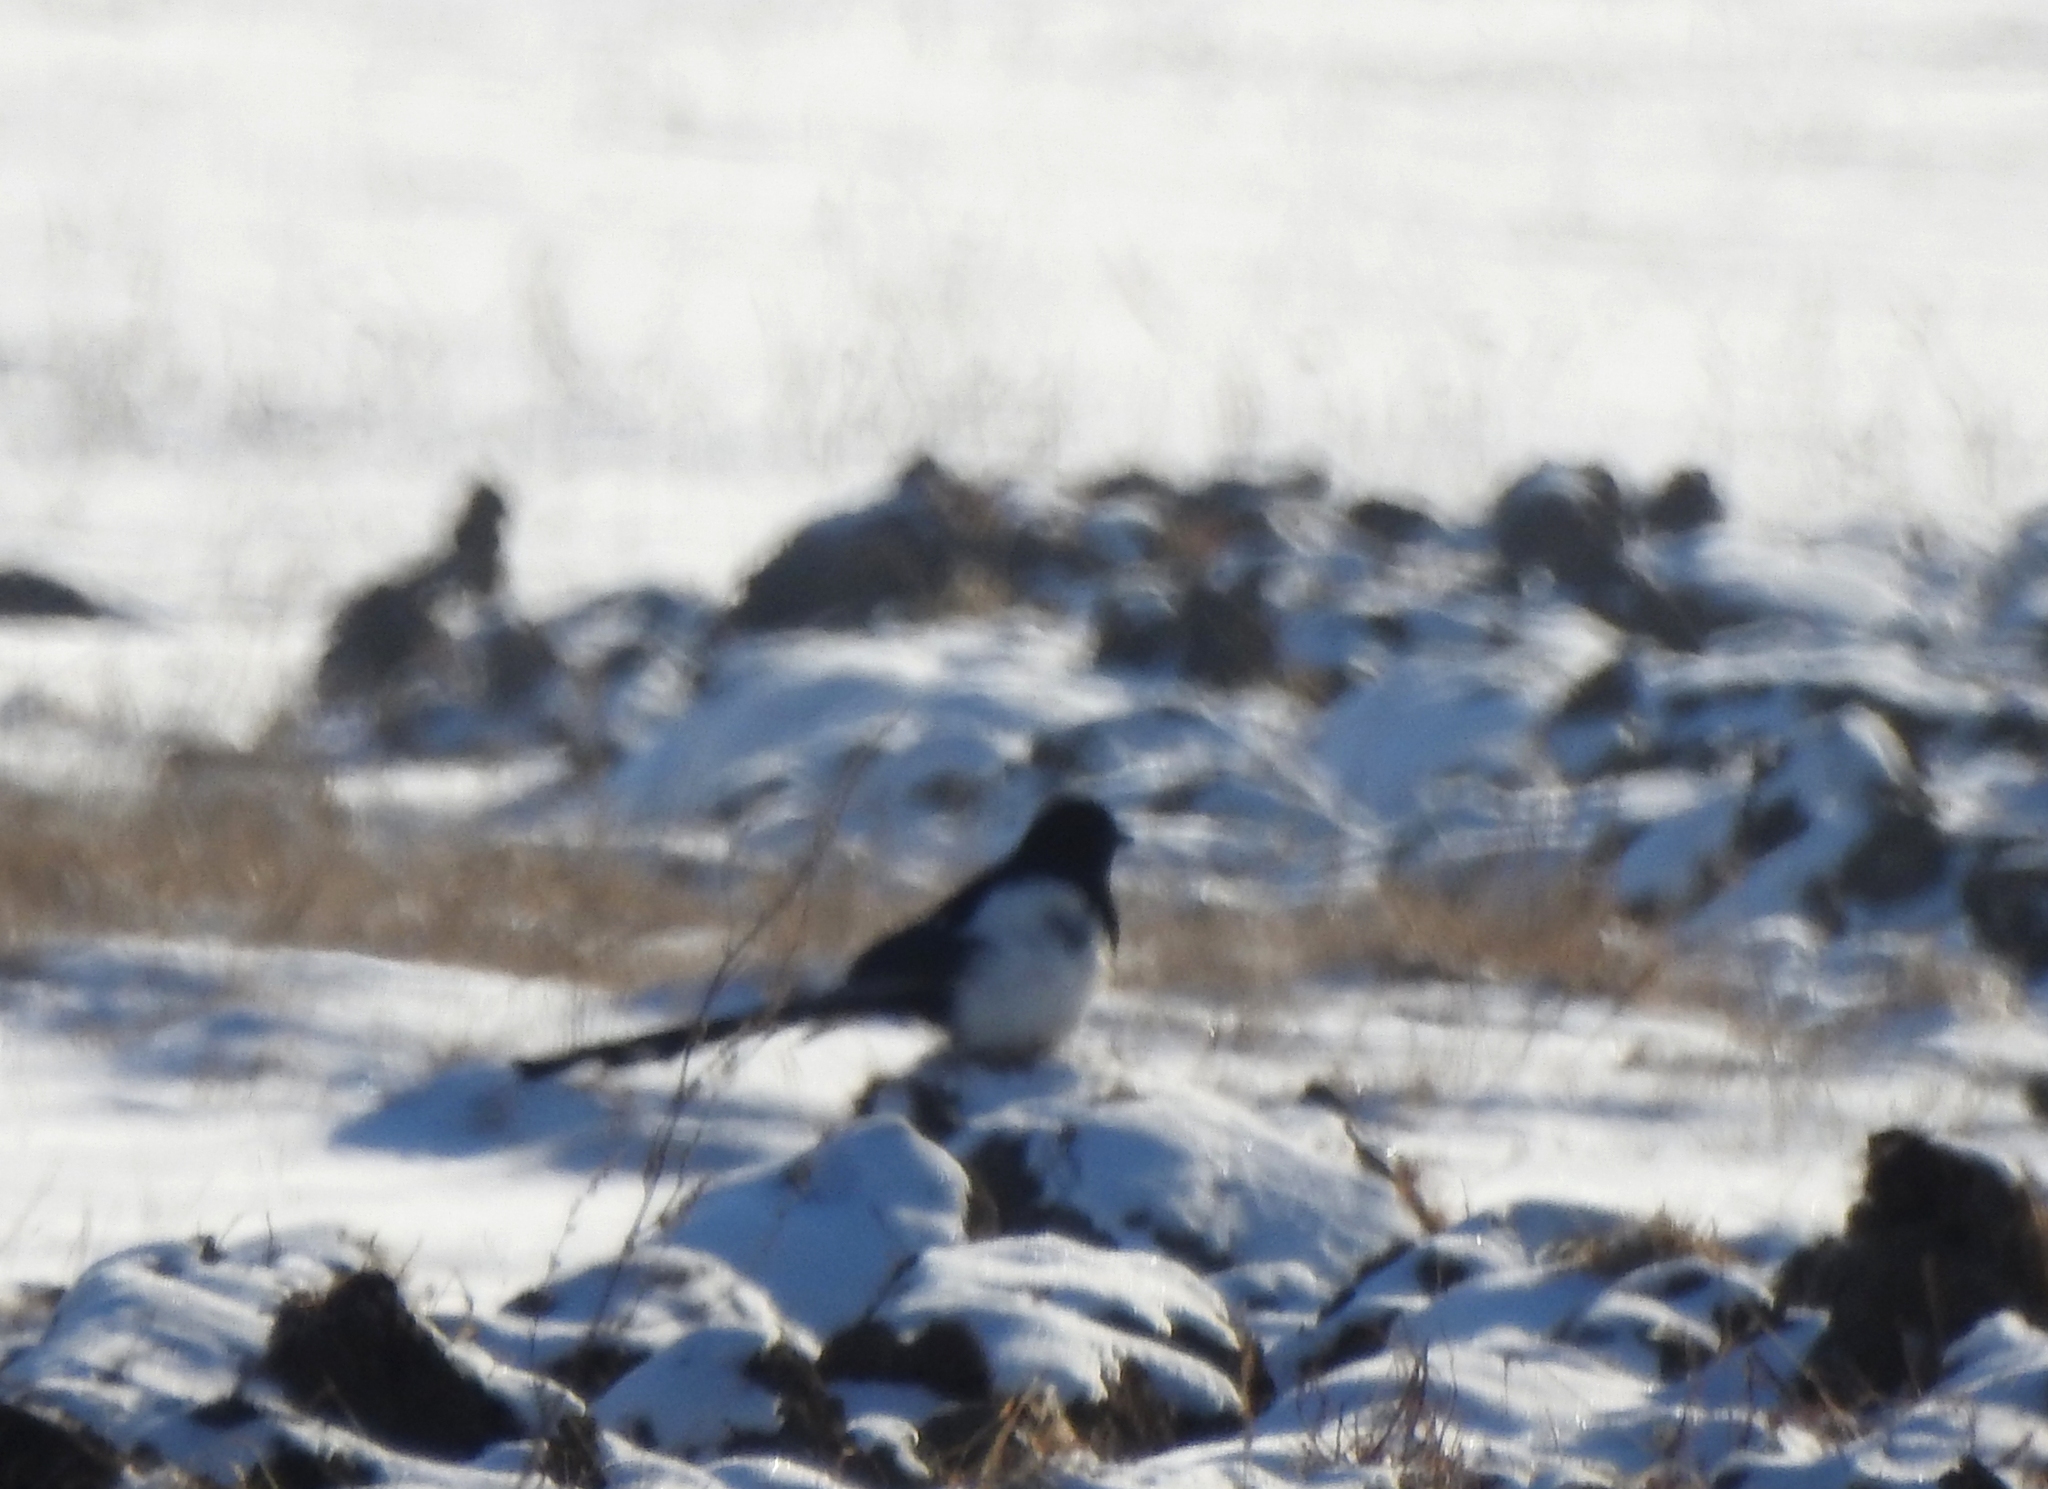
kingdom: Animalia
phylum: Chordata
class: Aves
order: Passeriformes
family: Corvidae
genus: Pica
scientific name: Pica pica
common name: Eurasian magpie
